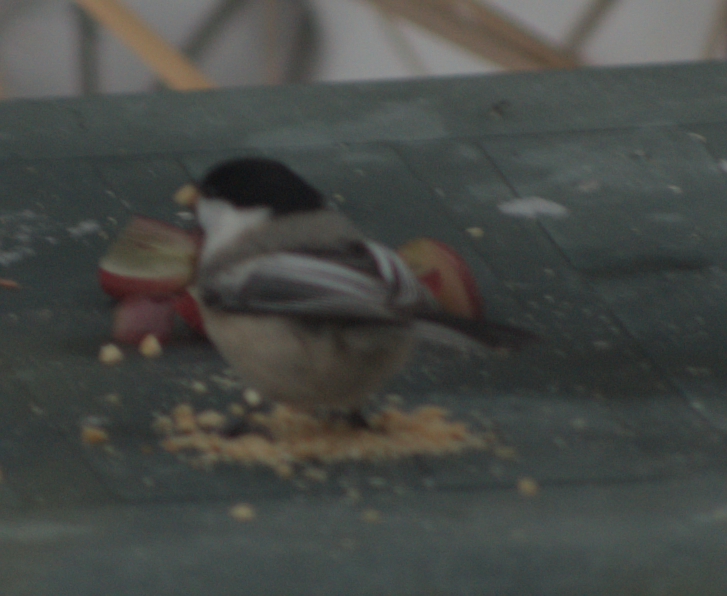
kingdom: Animalia
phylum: Chordata
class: Aves
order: Passeriformes
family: Paridae
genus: Poecile
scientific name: Poecile atricapillus
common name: Black-capped chickadee
